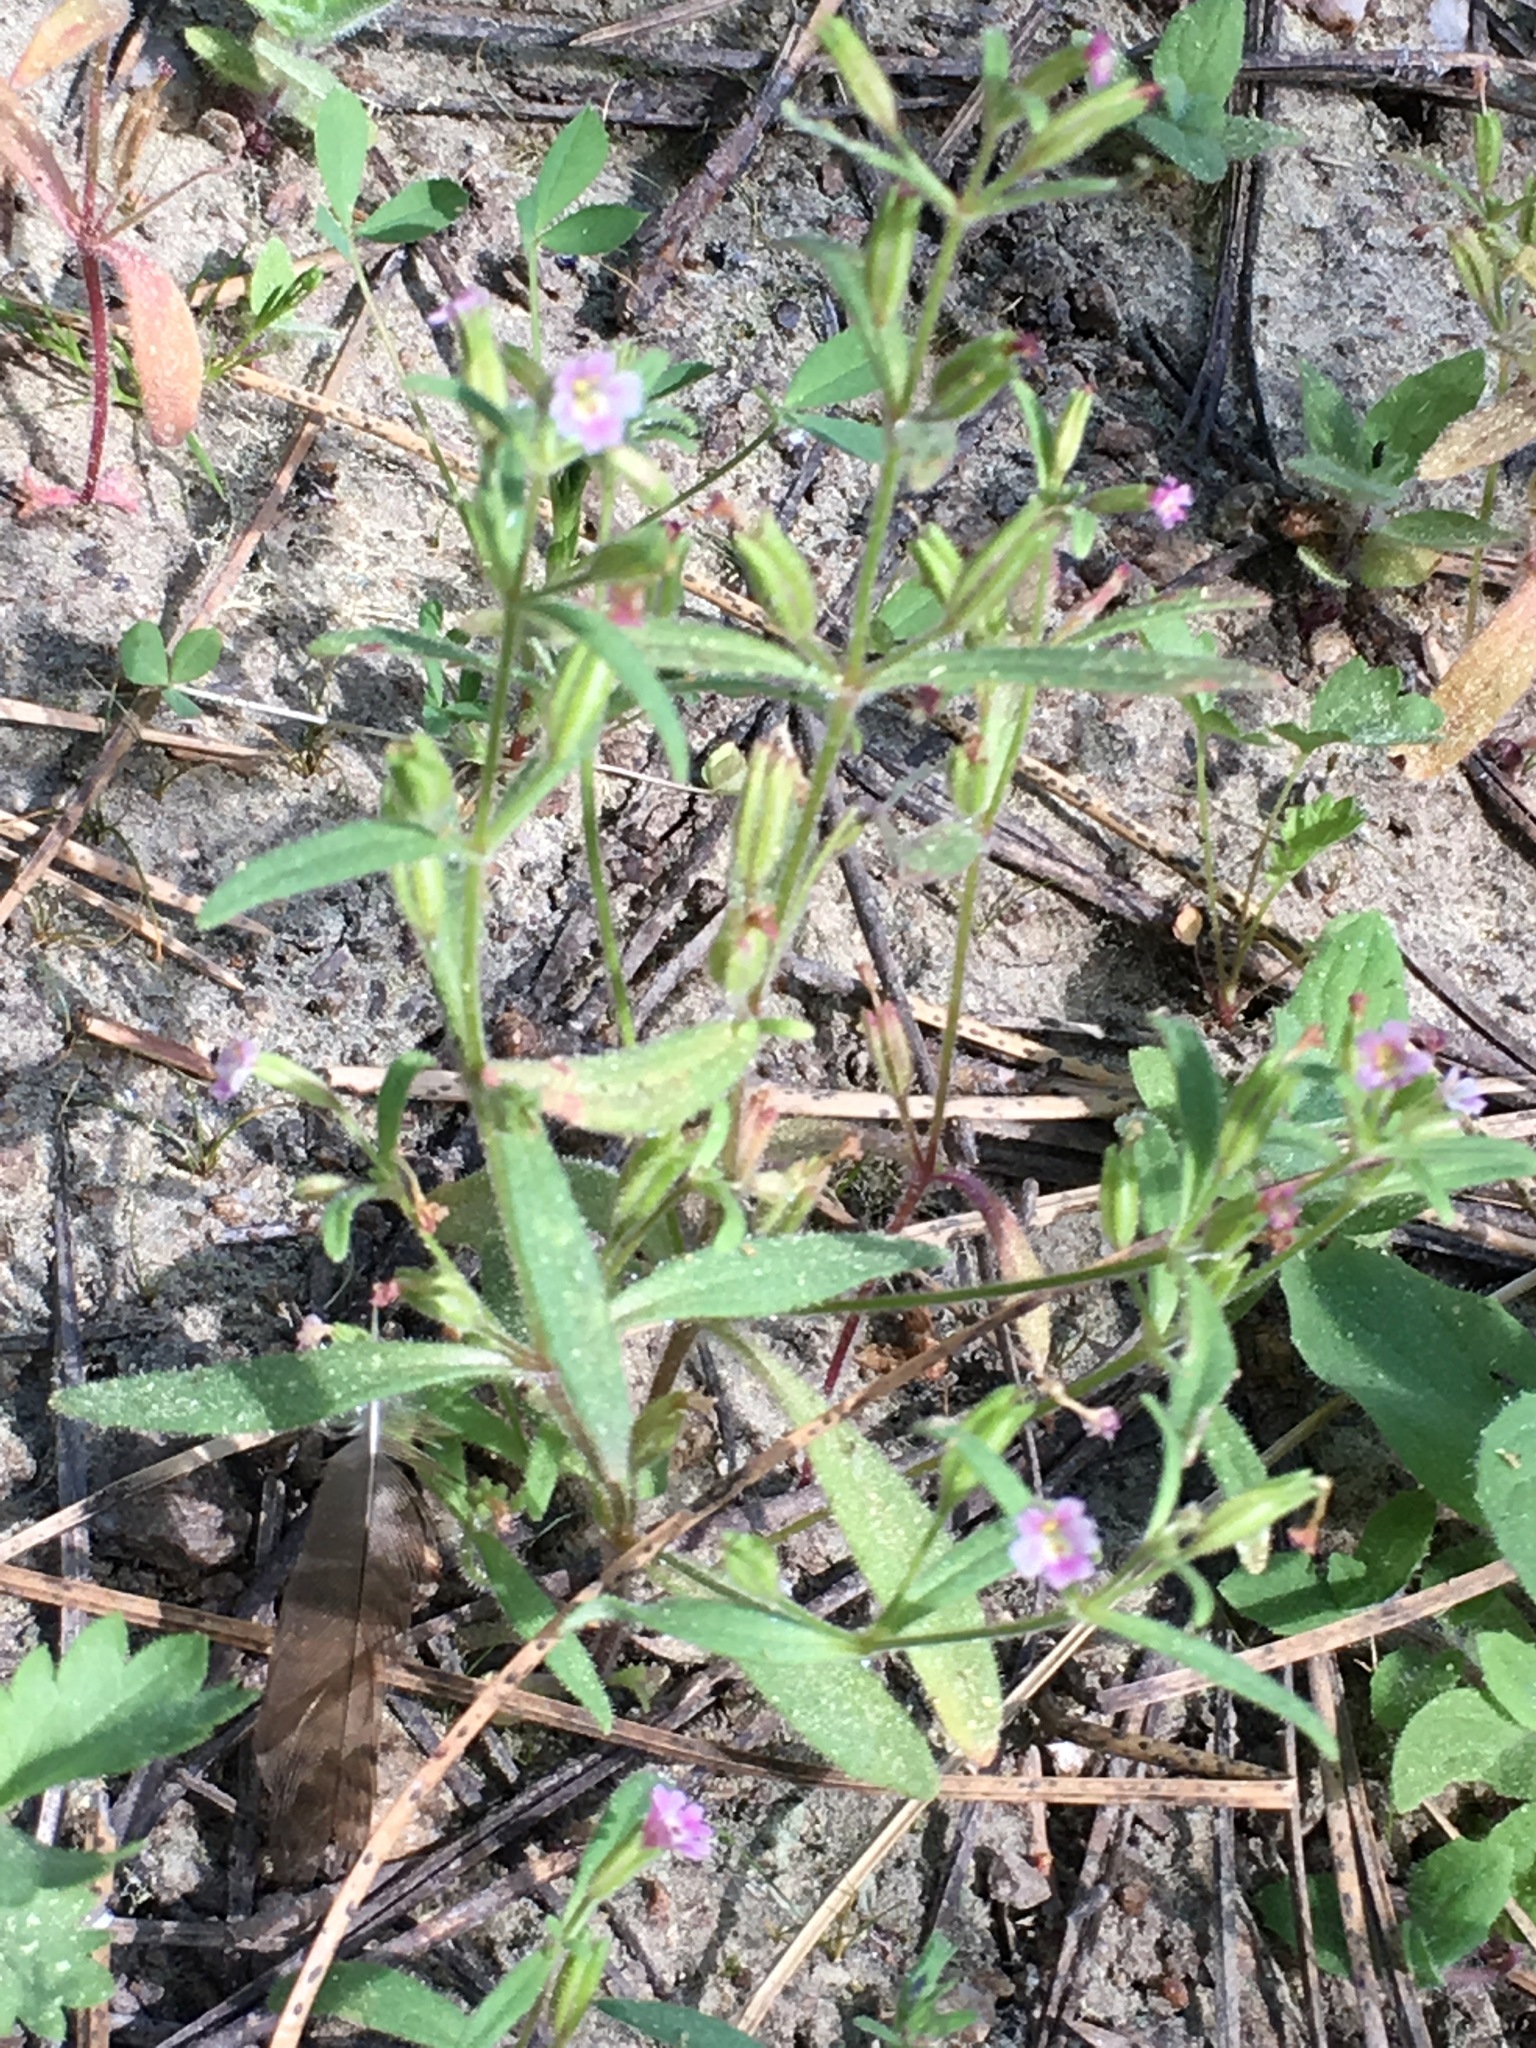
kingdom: Plantae
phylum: Tracheophyta
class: Magnoliopsida
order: Lamiales
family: Phrymaceae
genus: Erythranthe
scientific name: Erythranthe breweri
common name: Brewer's monkeyflower
